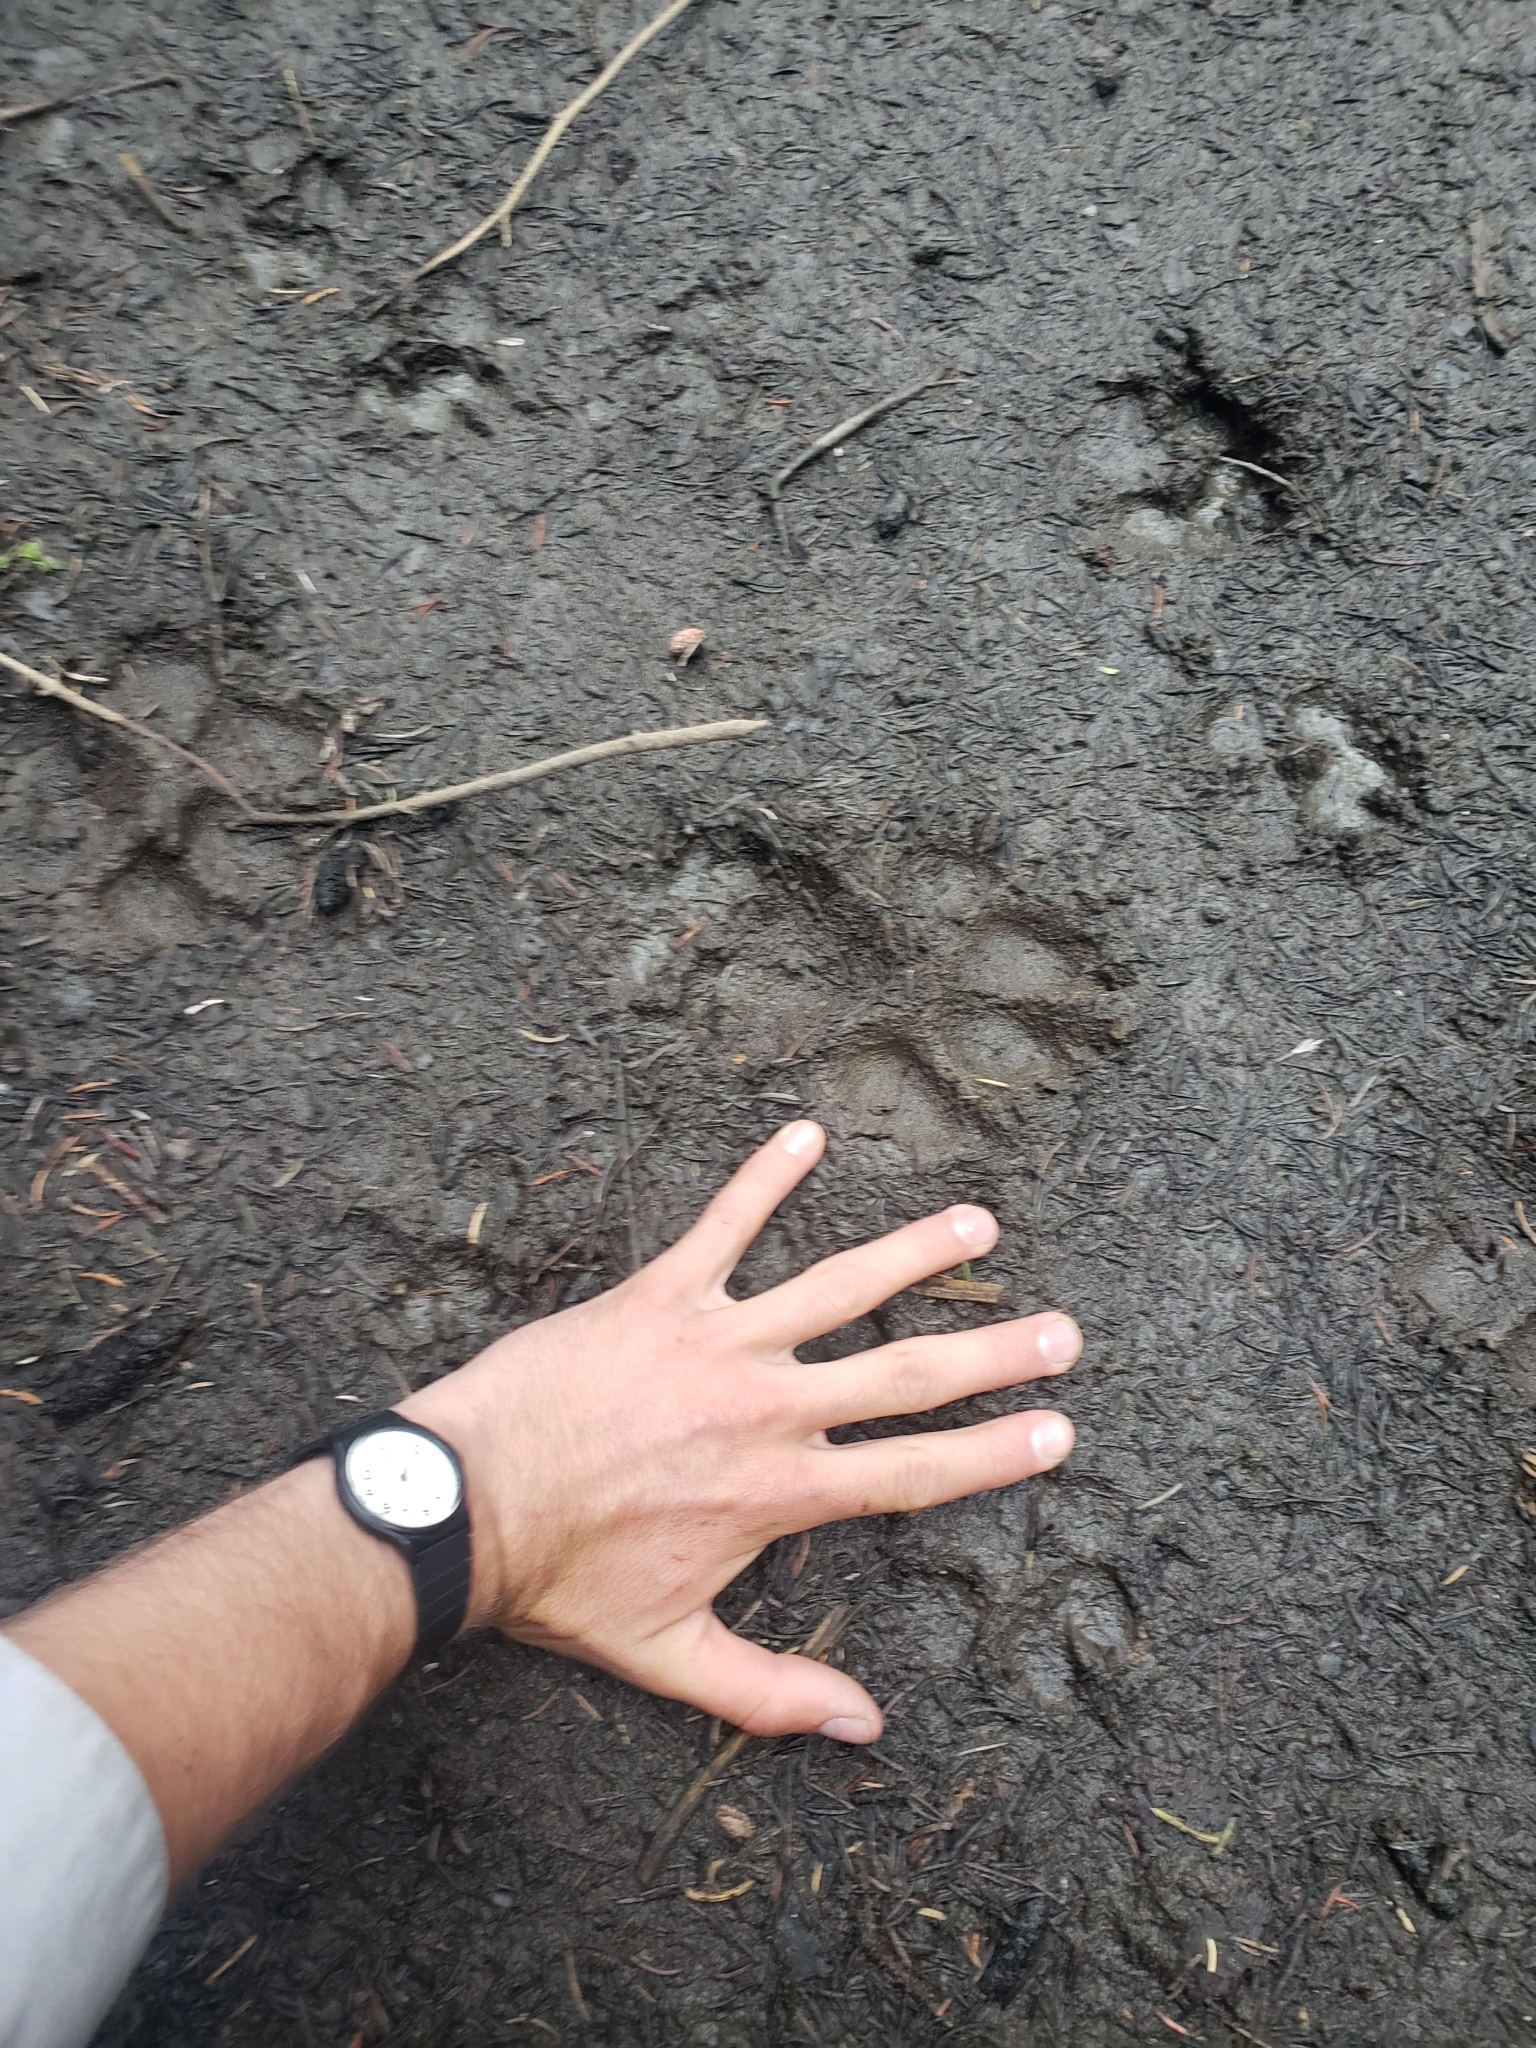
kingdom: Animalia
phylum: Chordata
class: Mammalia
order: Carnivora
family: Canidae
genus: Canis
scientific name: Canis lupus
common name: Gray wolf
